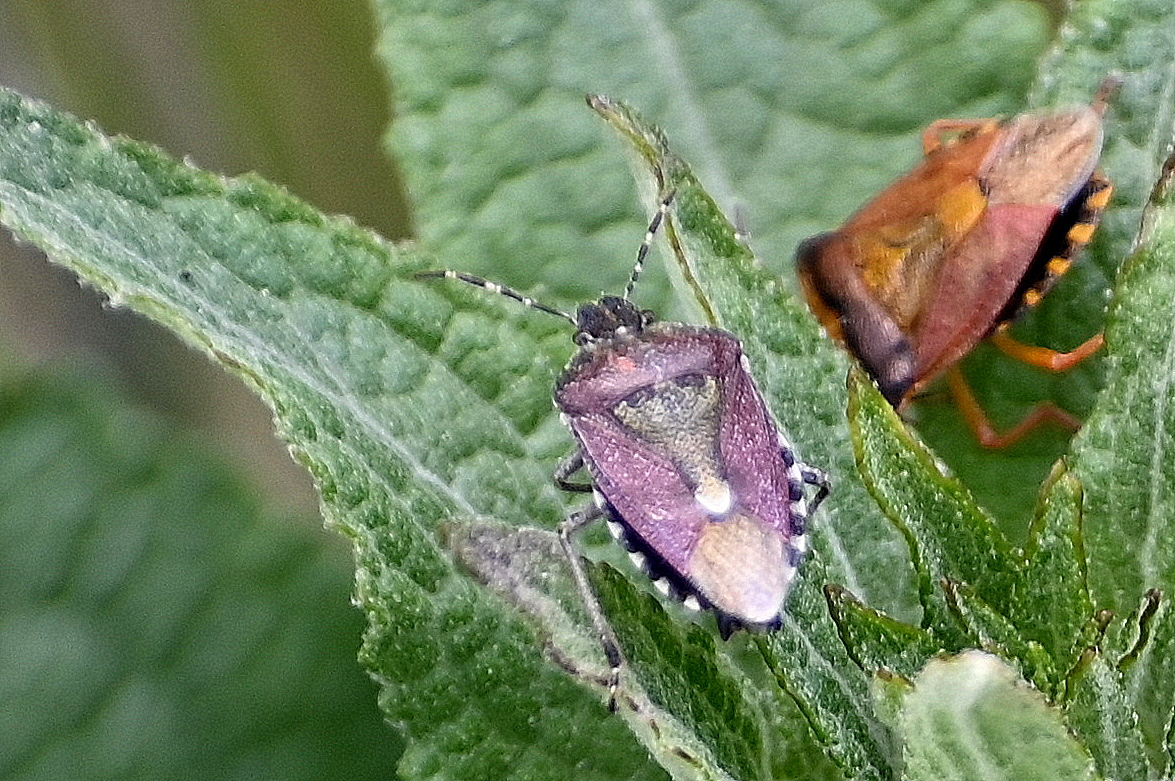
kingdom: Animalia
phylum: Arthropoda
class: Insecta
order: Hemiptera
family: Pentatomidae
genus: Dolycoris
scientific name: Dolycoris baccarum
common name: Sloe bug
